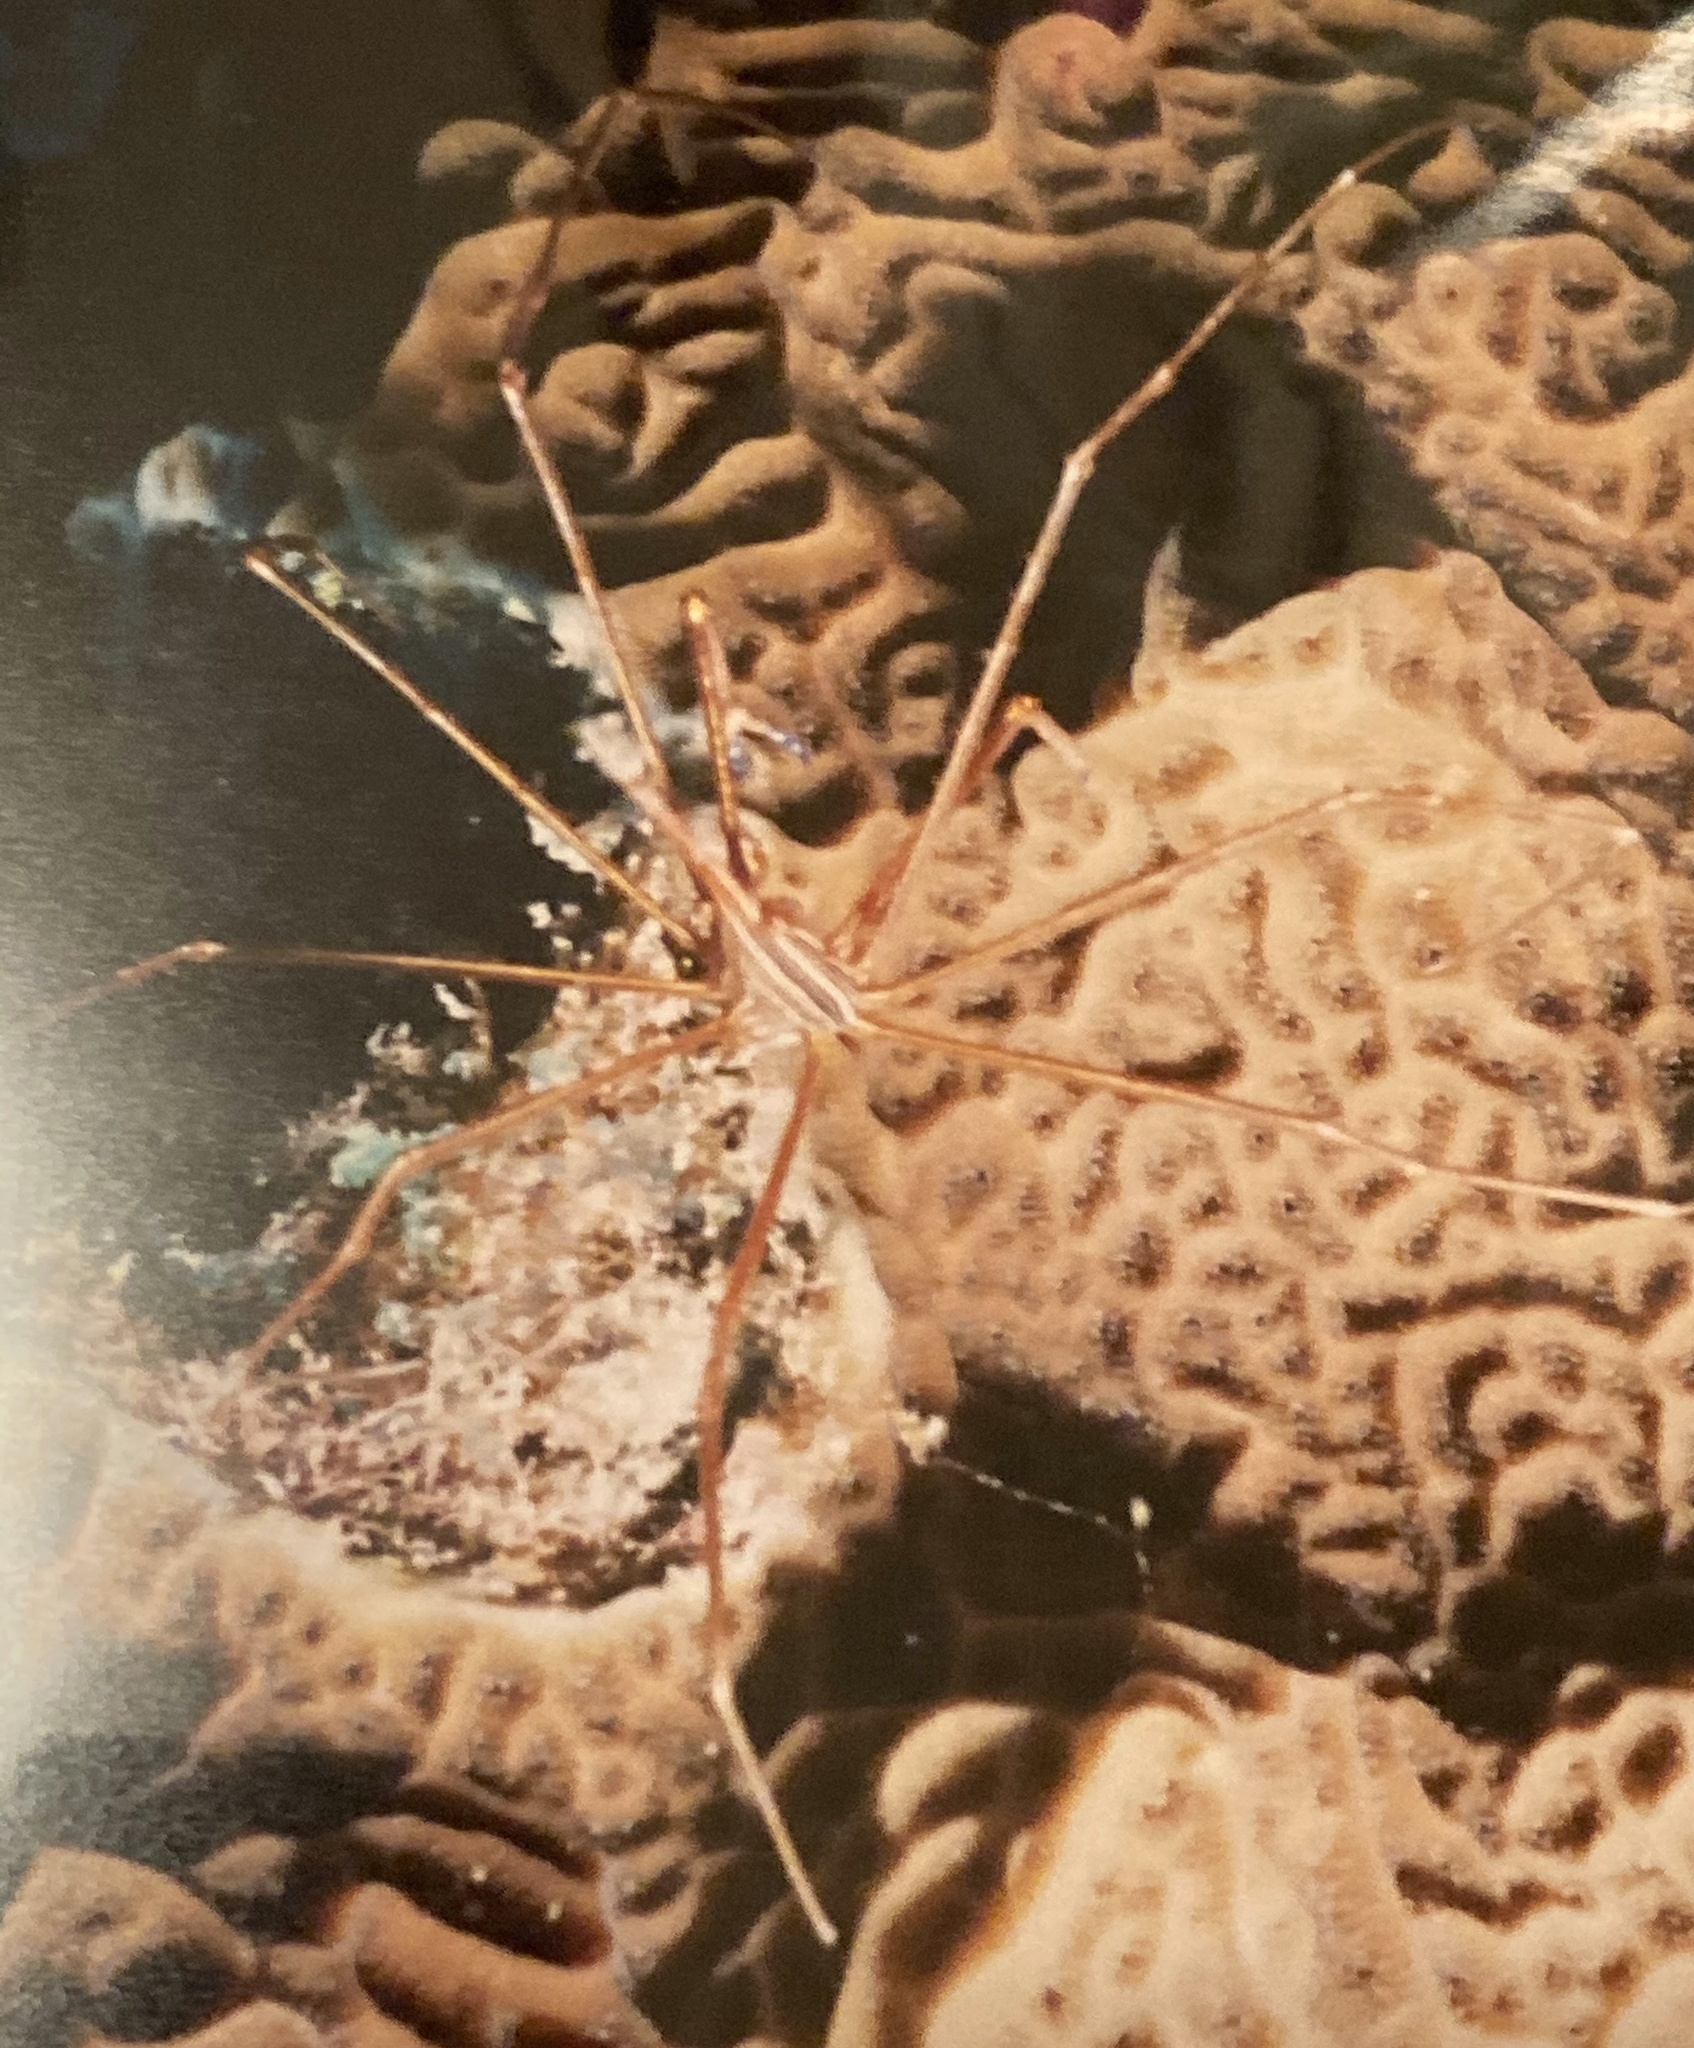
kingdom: Animalia
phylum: Arthropoda
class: Malacostraca
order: Decapoda
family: Inachoididae
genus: Stenorhynchus
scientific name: Stenorhynchus seticornis
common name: Arrow crab
